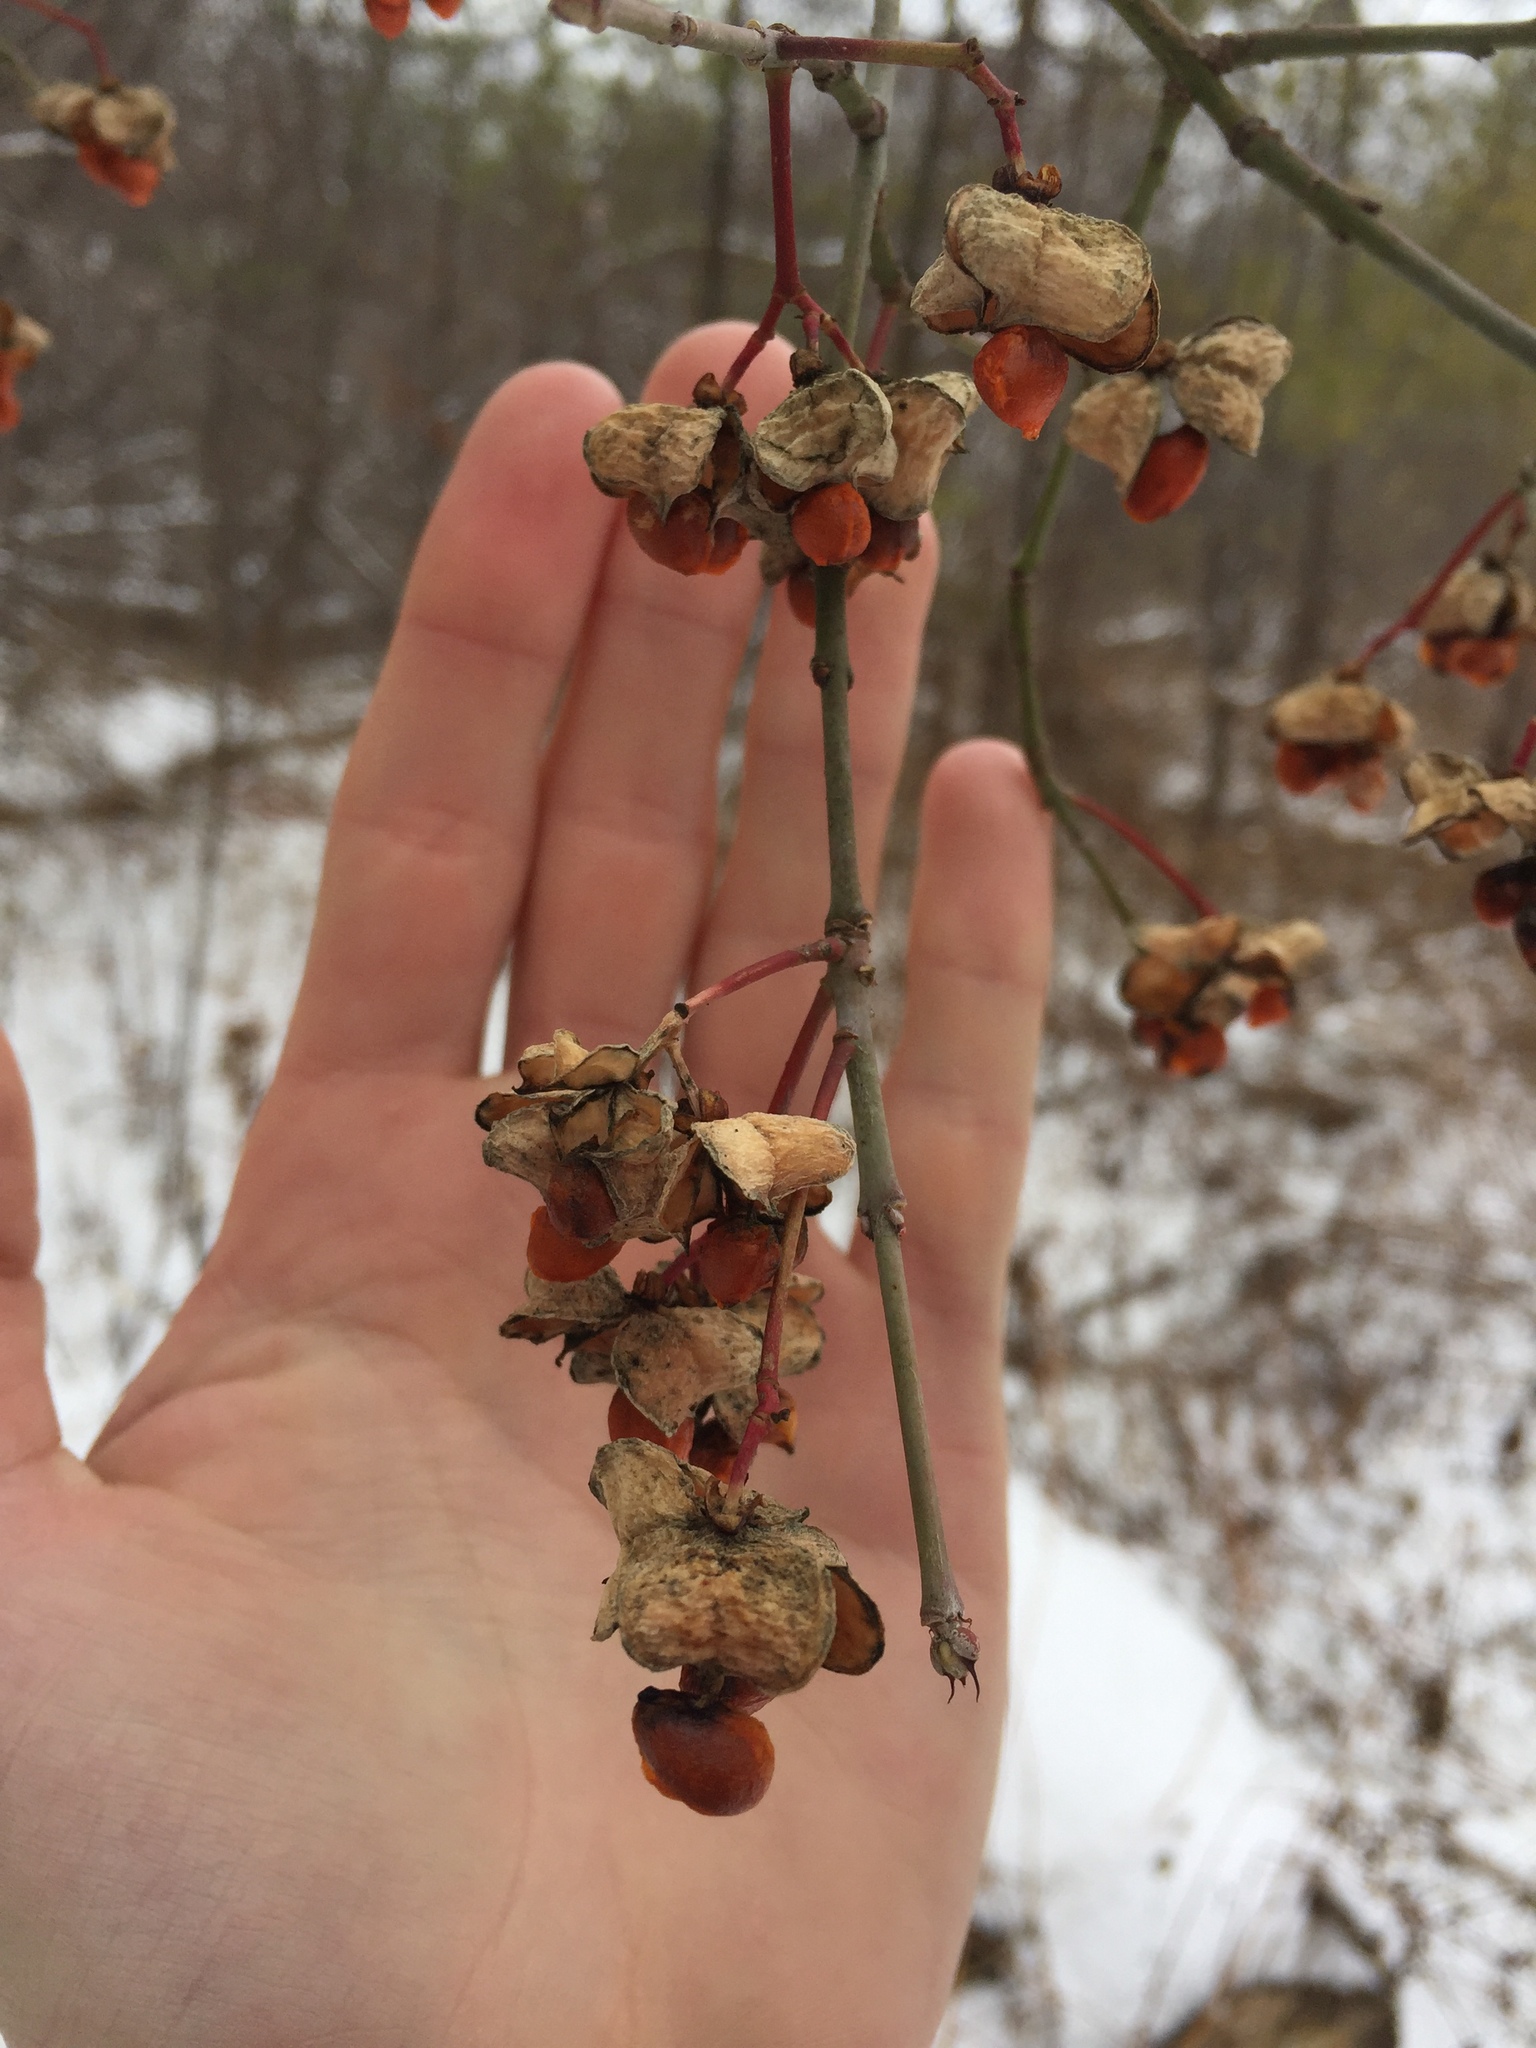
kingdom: Plantae
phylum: Tracheophyta
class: Magnoliopsida
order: Celastrales
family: Celastraceae
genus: Celastrus
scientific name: Celastrus scandens
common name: American bittersweet
